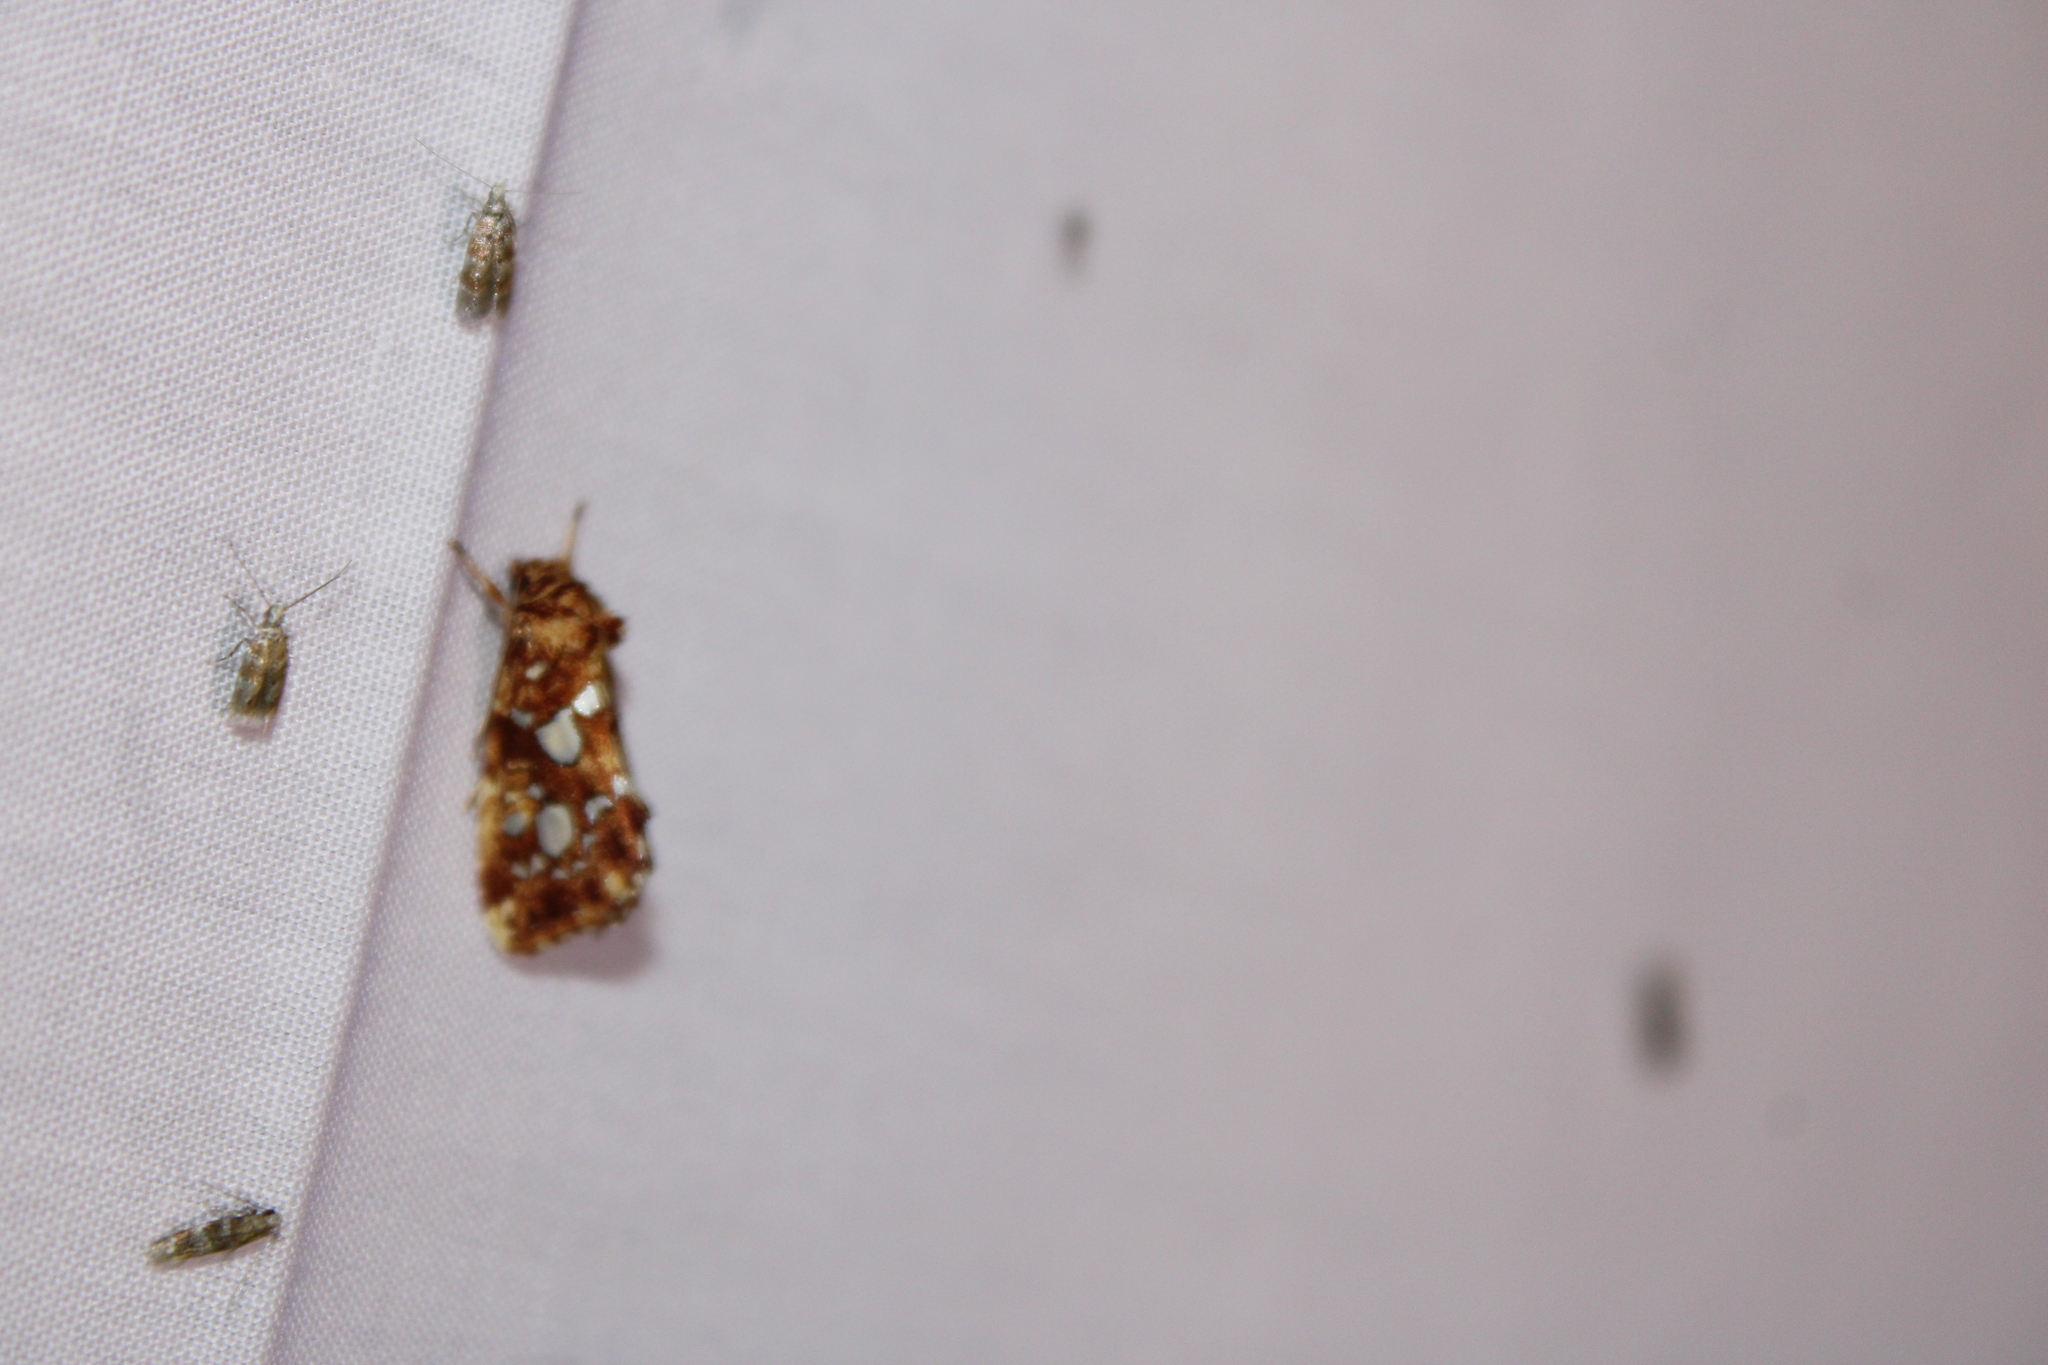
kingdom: Animalia
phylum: Arthropoda
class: Insecta
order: Lepidoptera
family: Noctuidae
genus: Callopistria
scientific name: Callopistria cordata
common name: Silver-spotted fern moth
